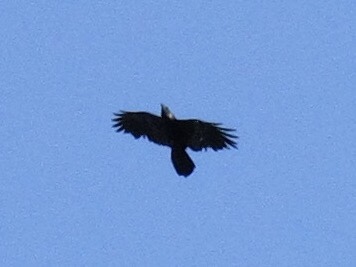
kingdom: Animalia
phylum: Chordata
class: Aves
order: Passeriformes
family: Corvidae
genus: Corvus
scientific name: Corvus corax
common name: Common raven
